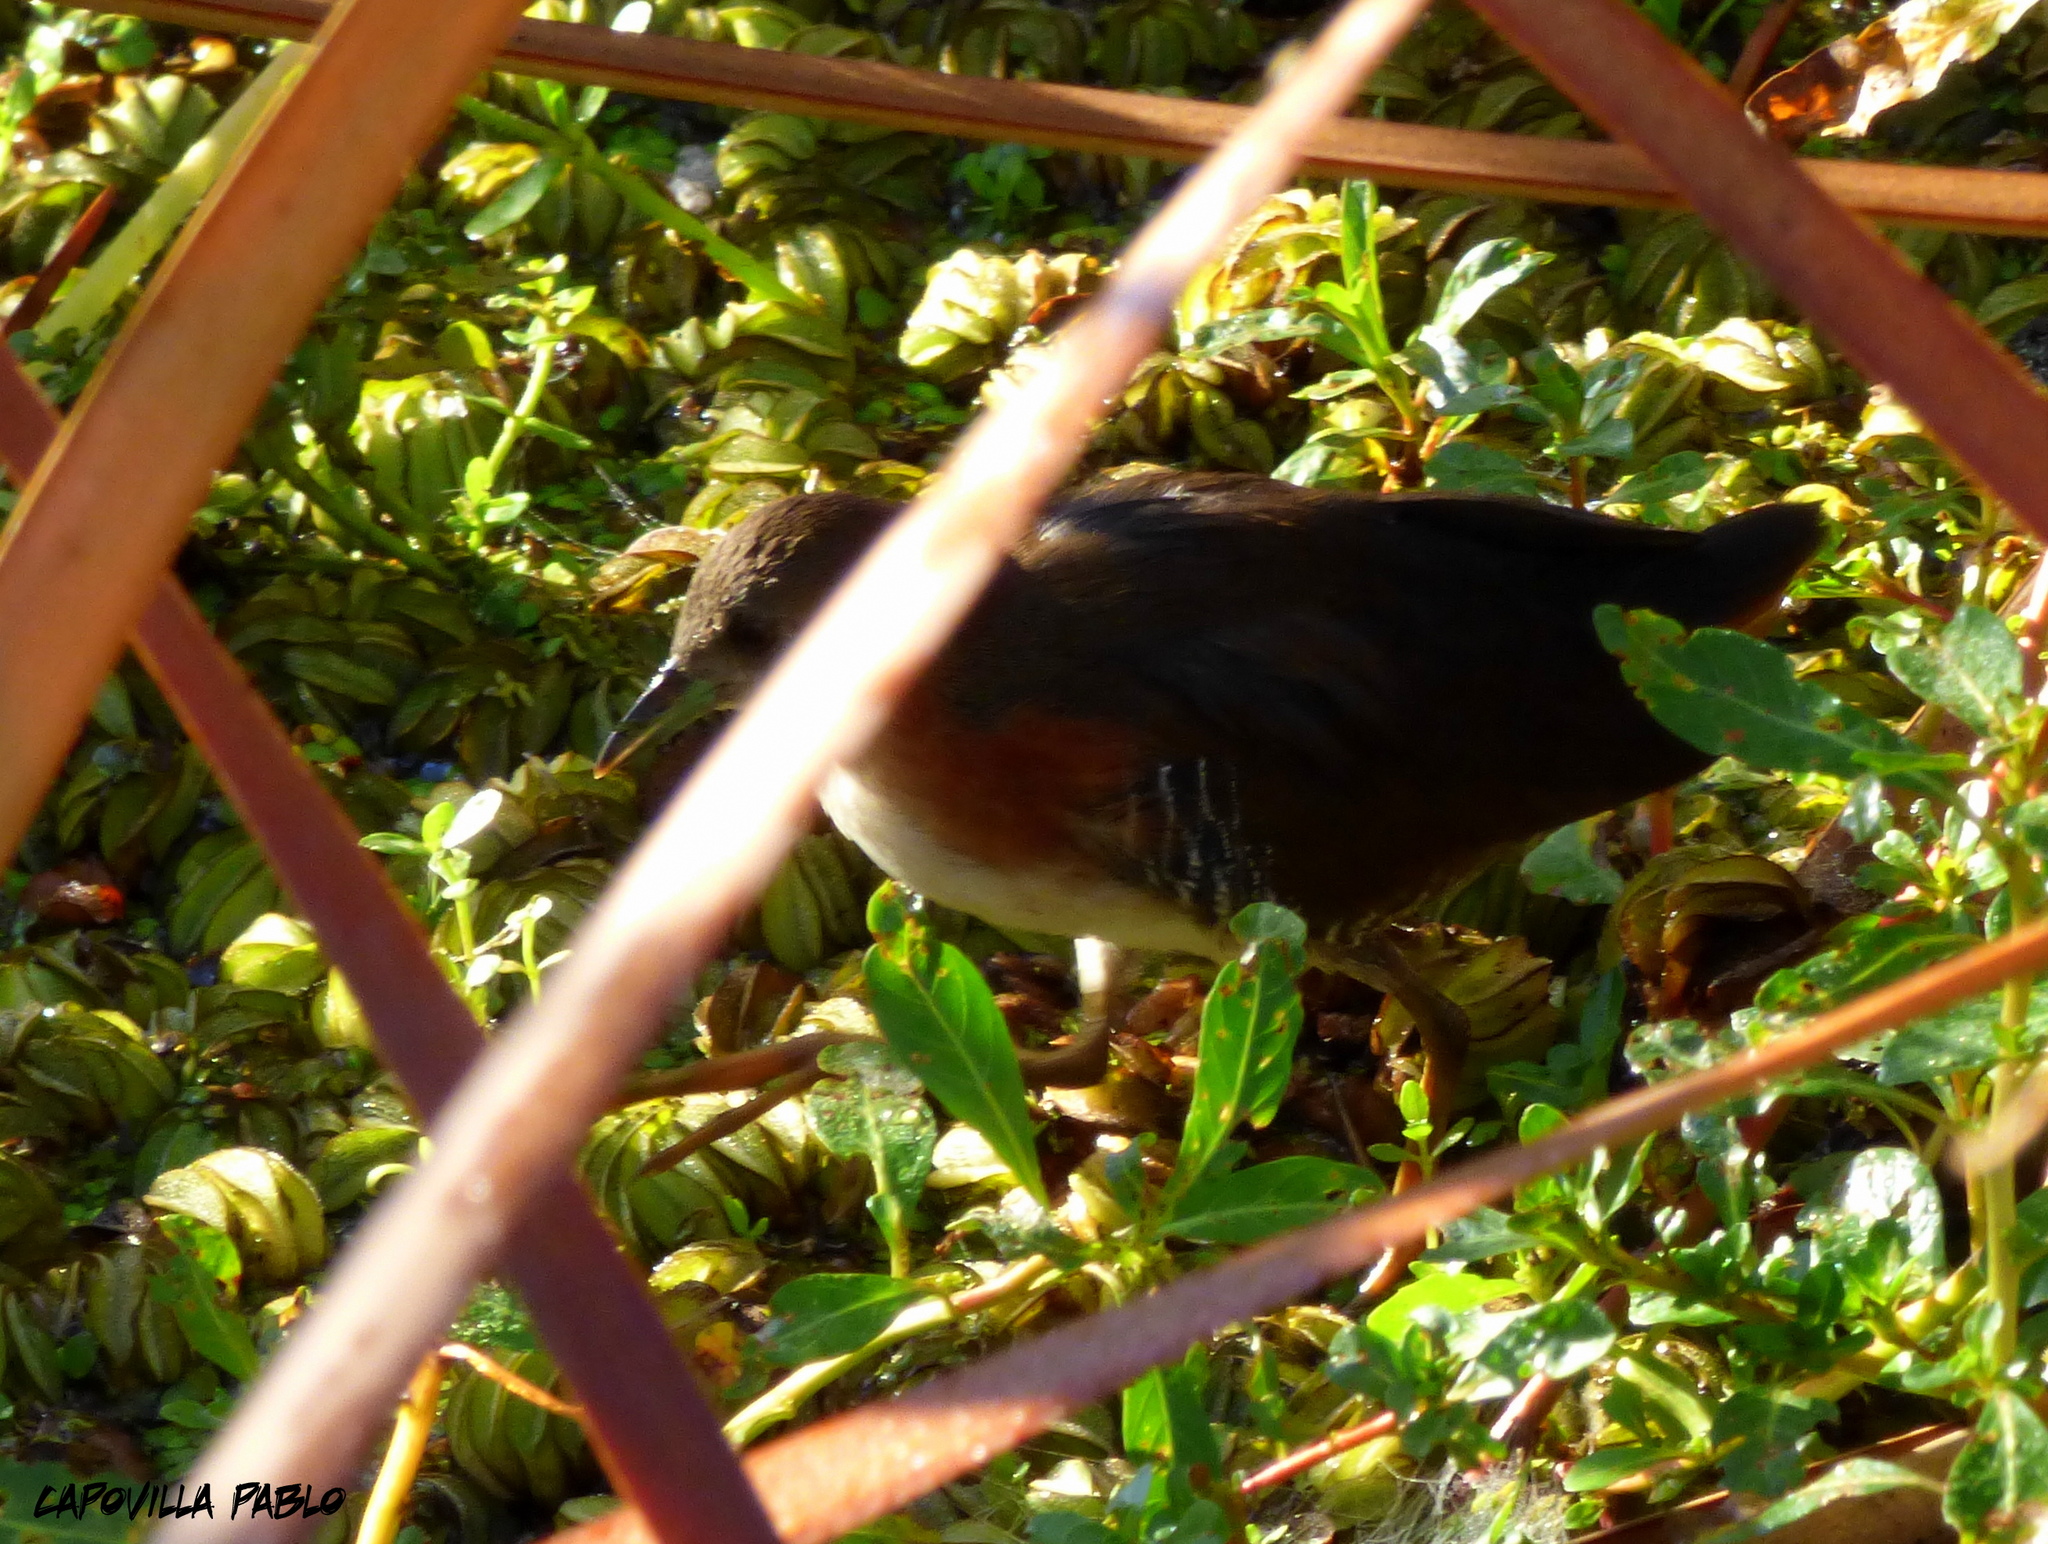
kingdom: Animalia
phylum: Chordata
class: Aves
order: Gruiformes
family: Rallidae
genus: Laterallus
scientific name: Laterallus melanophaius
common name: Rufous-sided crake
